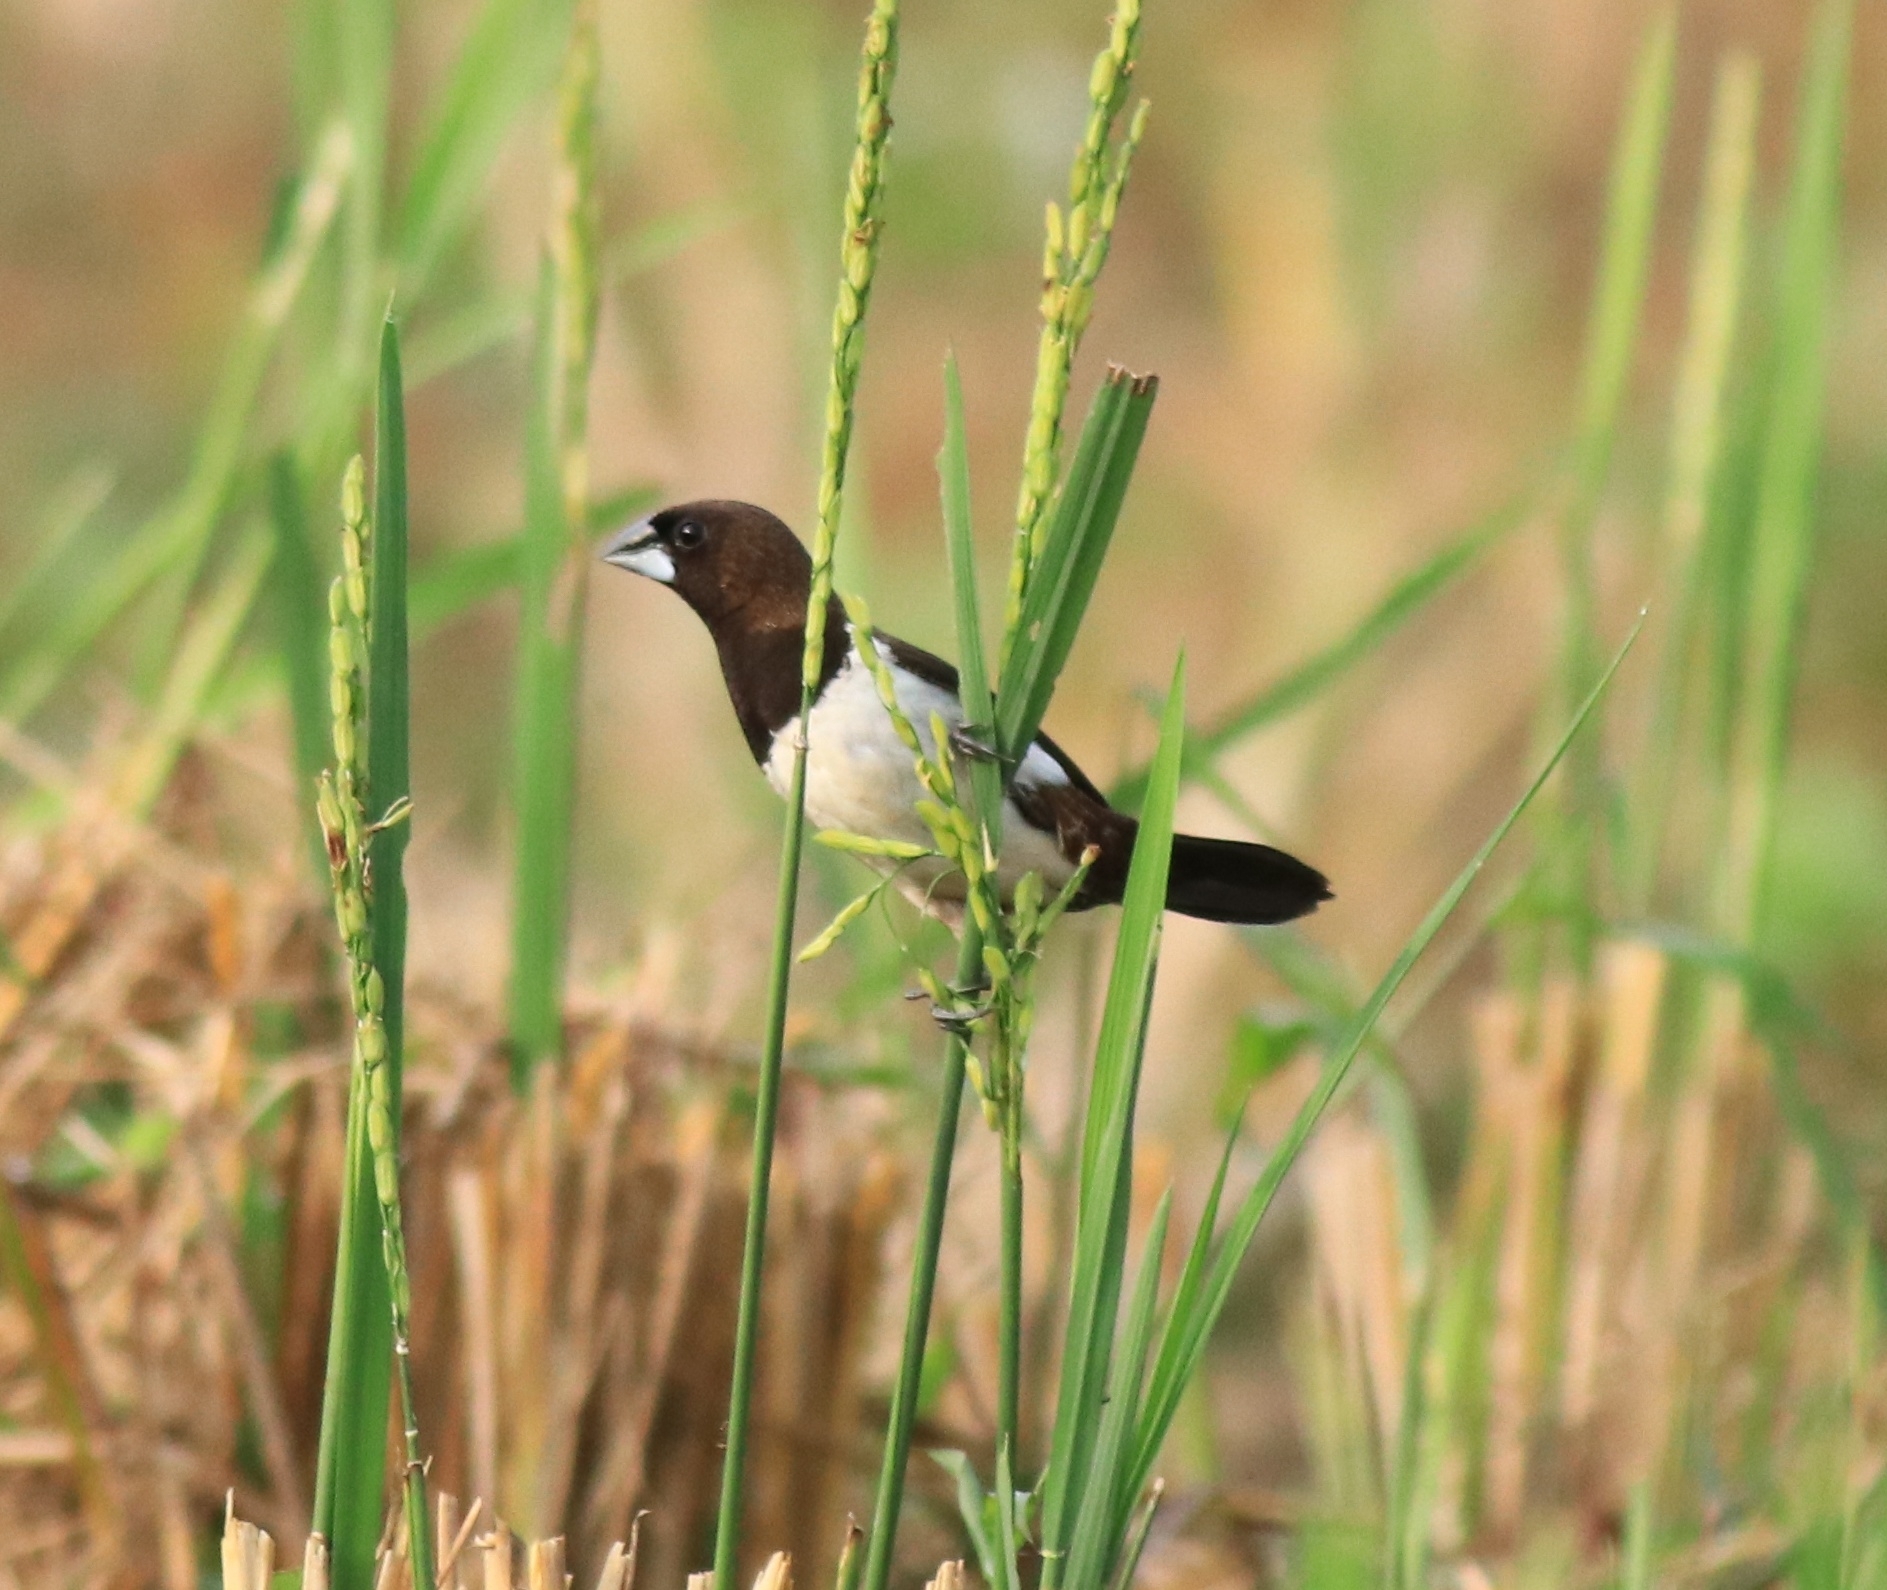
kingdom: Animalia
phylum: Chordata
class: Aves
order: Passeriformes
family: Estrildidae
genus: Lonchura
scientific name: Lonchura striata
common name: White-rumped munia
